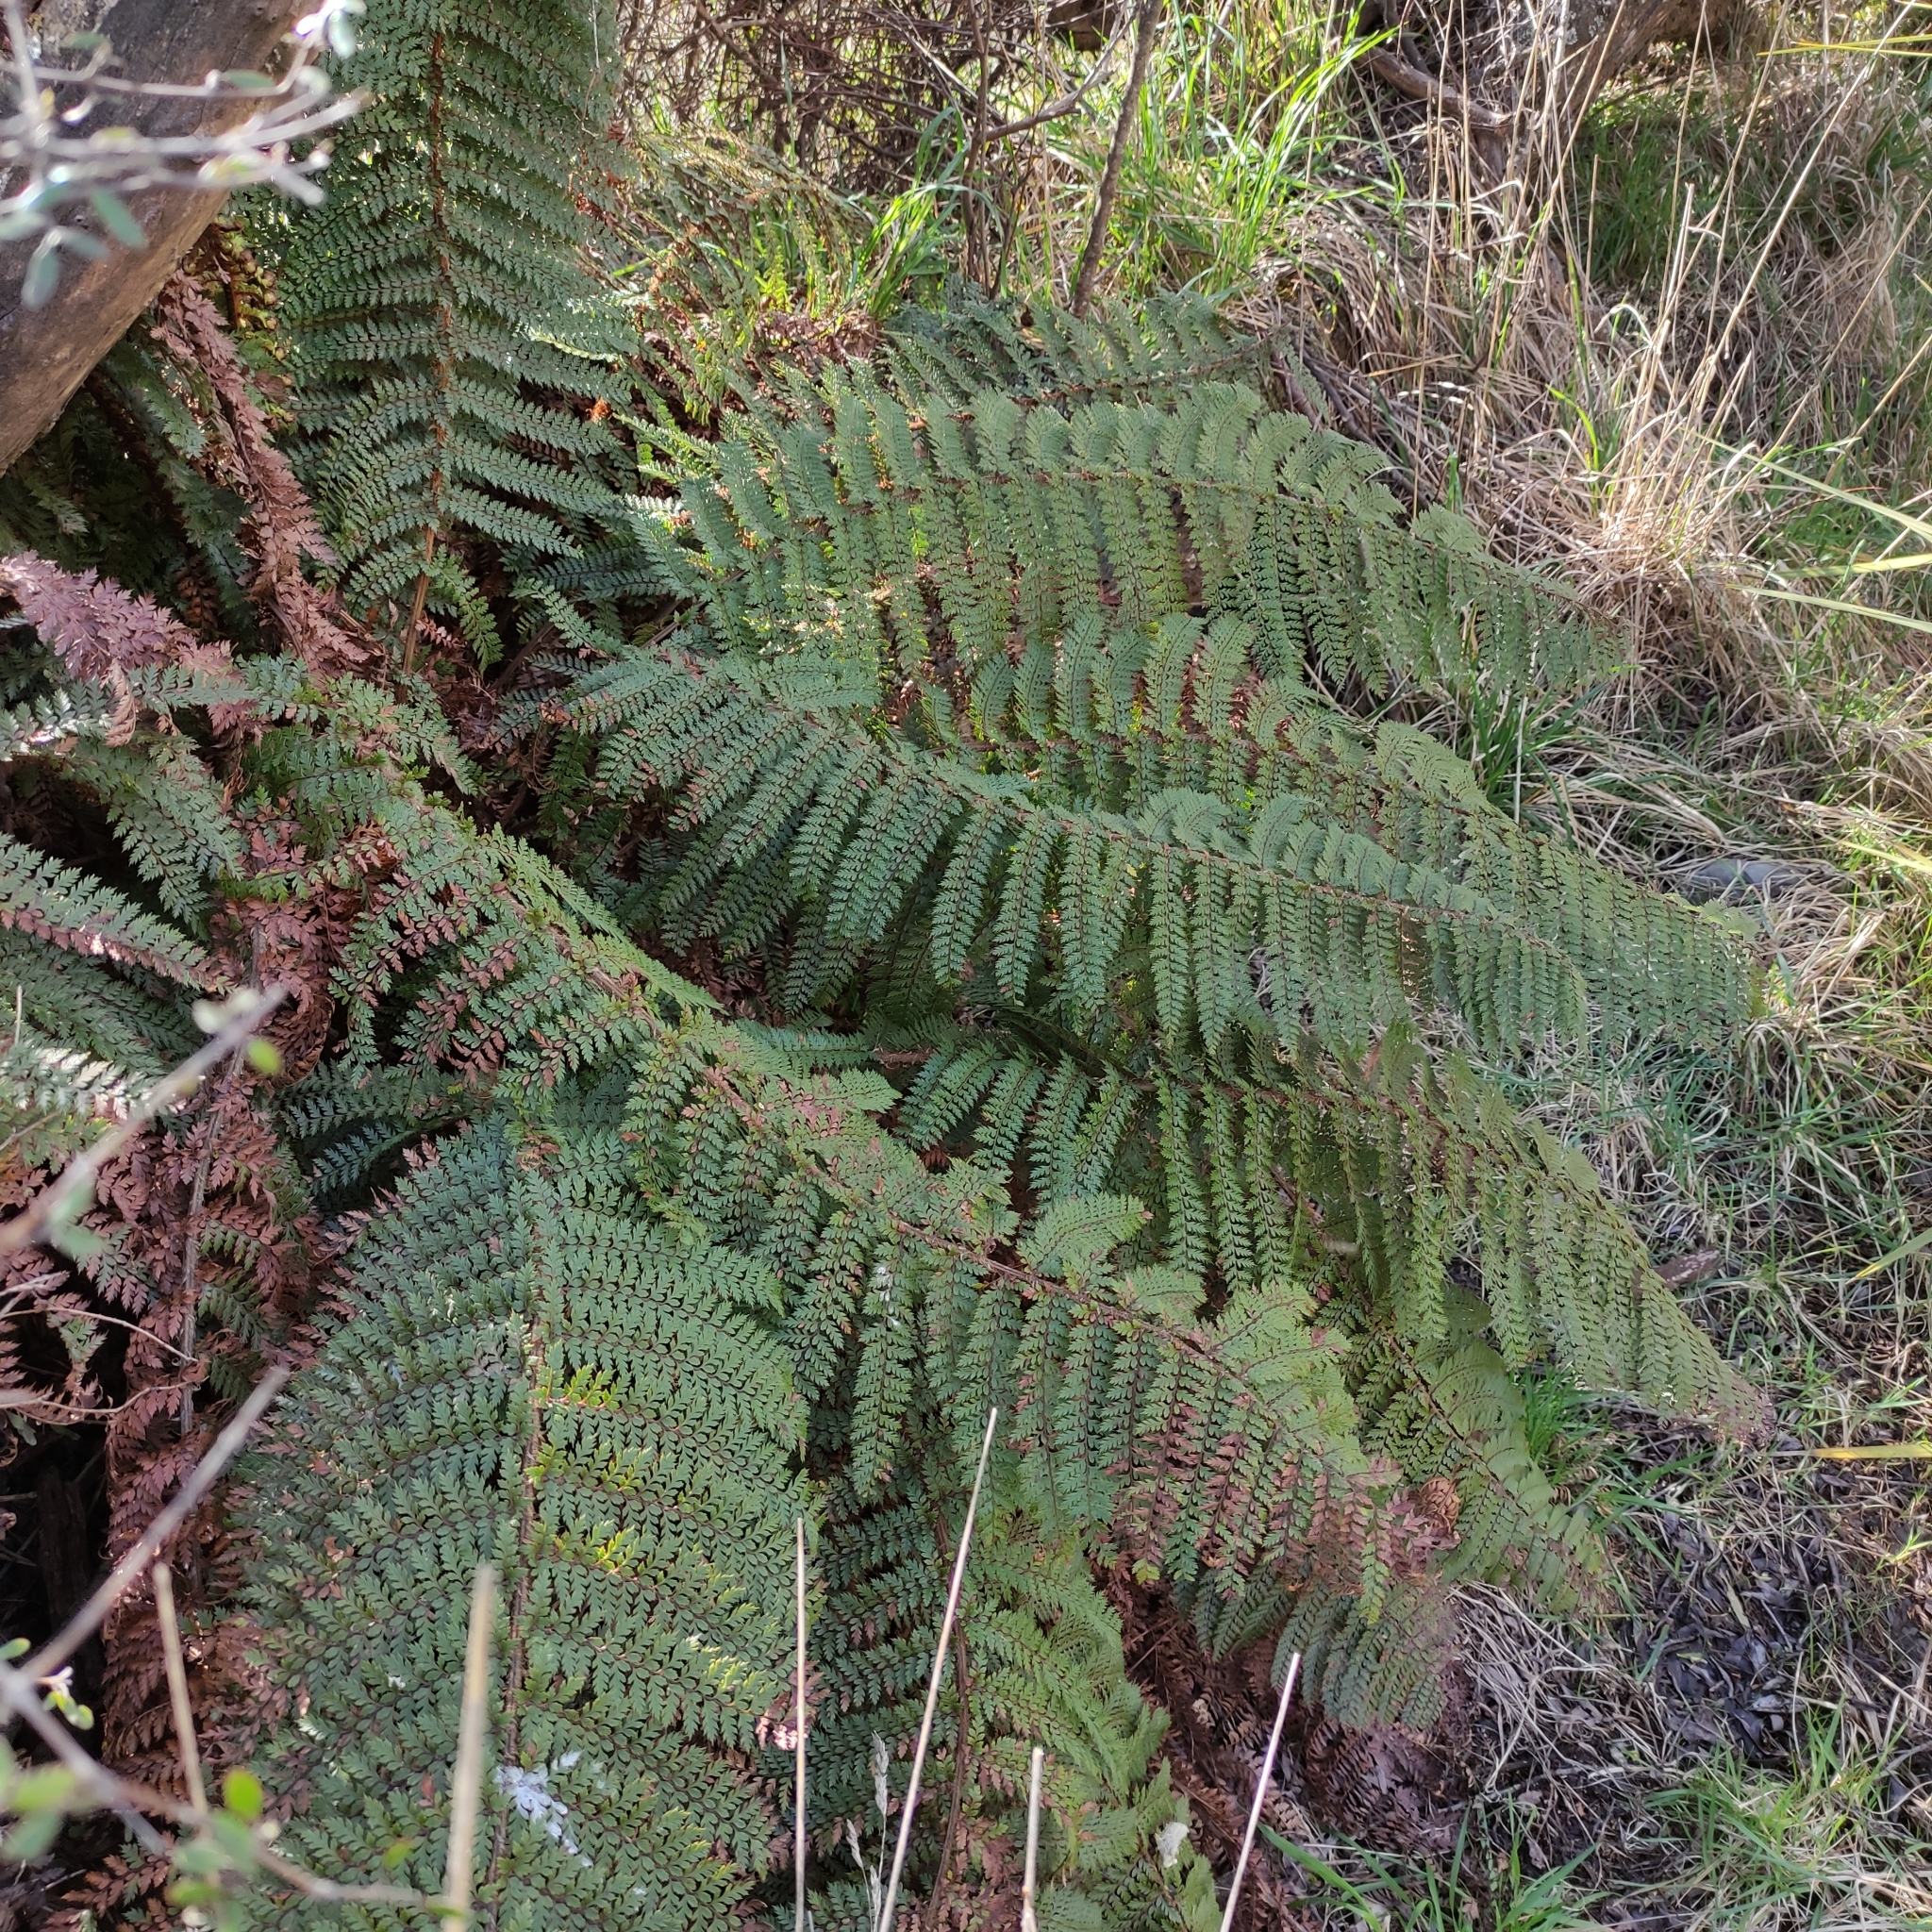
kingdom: Plantae
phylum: Tracheophyta
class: Polypodiopsida
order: Polypodiales
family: Dryopteridaceae
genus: Polystichum
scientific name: Polystichum vestitum
